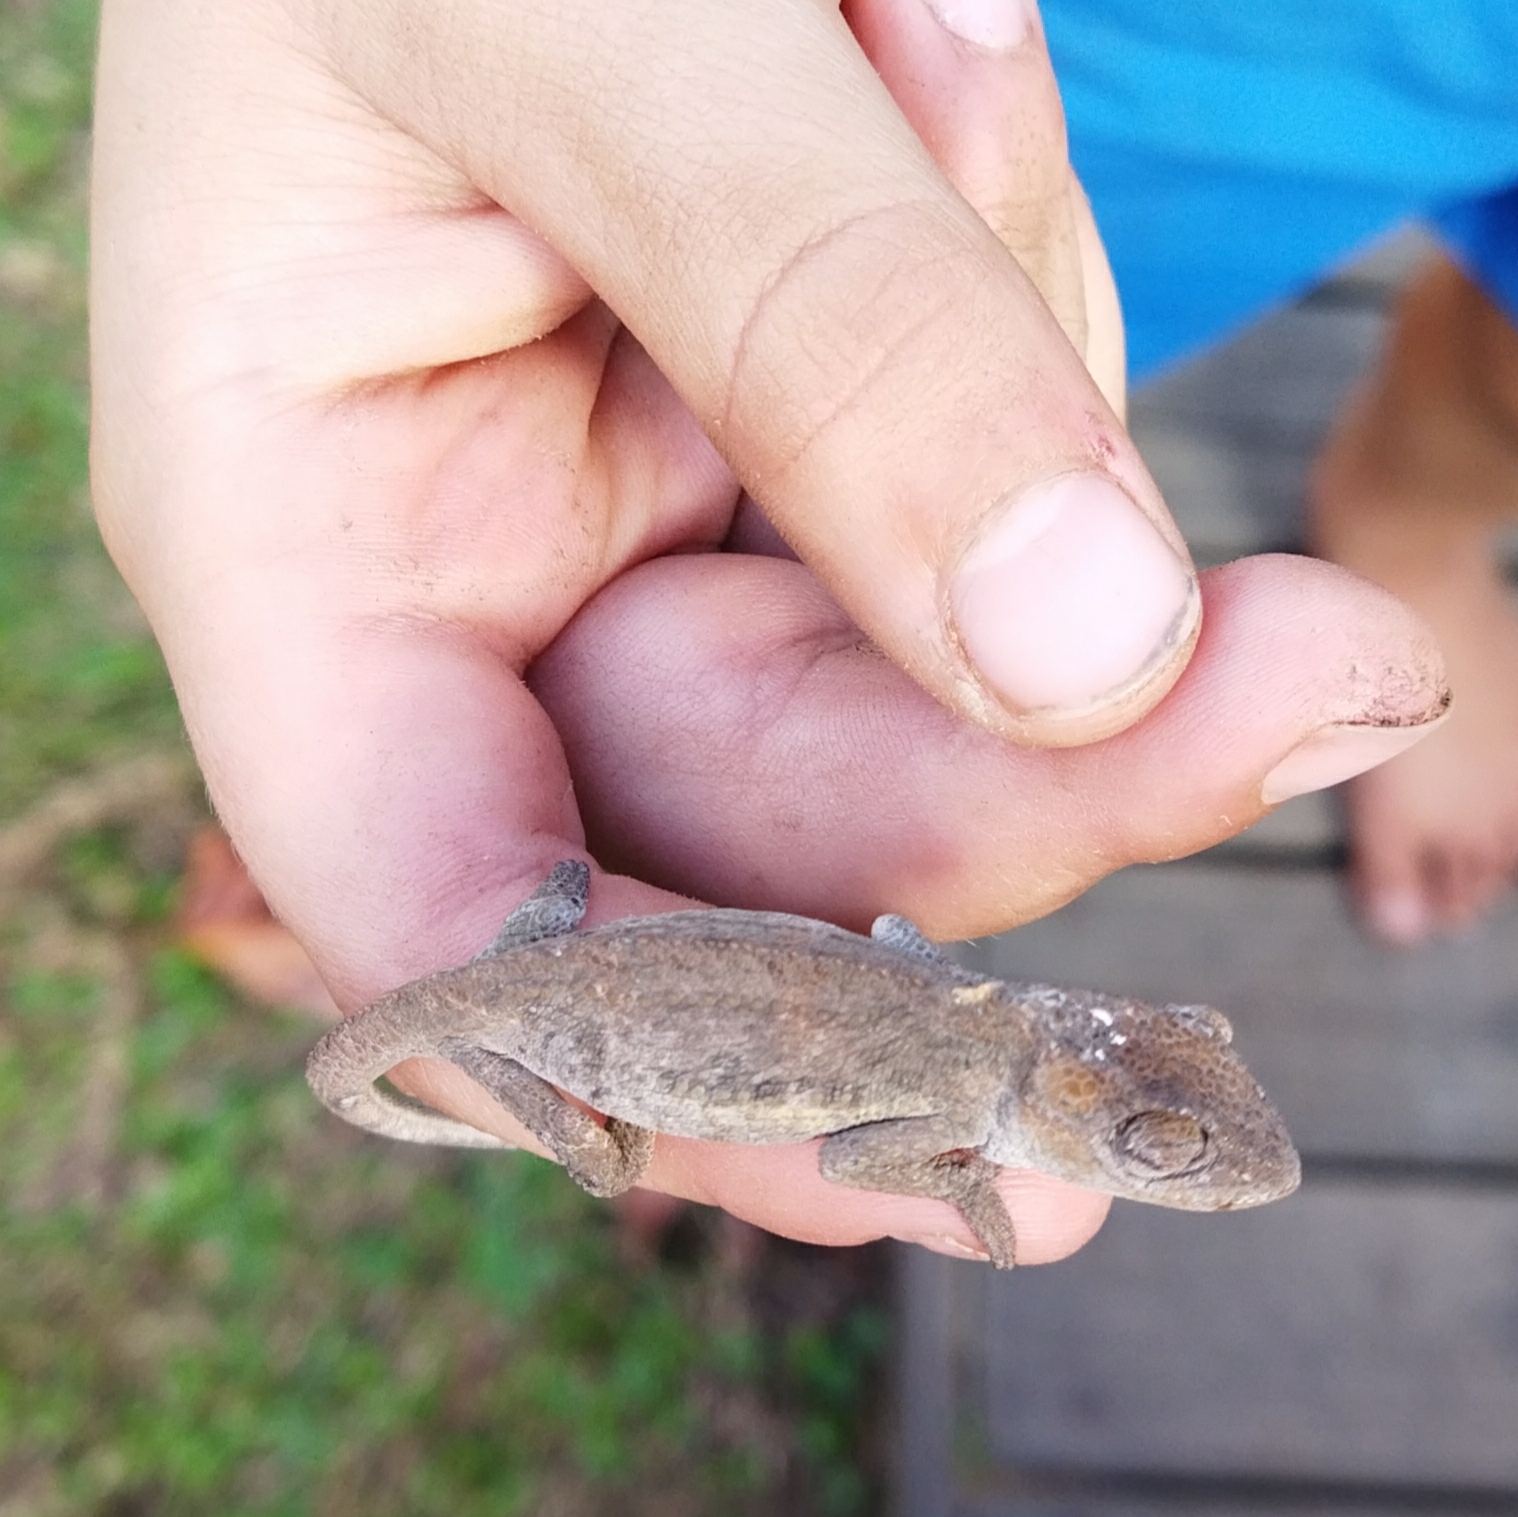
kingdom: Animalia
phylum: Chordata
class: Squamata
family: Chamaeleonidae
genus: Bradypodion
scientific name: Bradypodion damaranum
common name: Knysna dwarf chameleon
